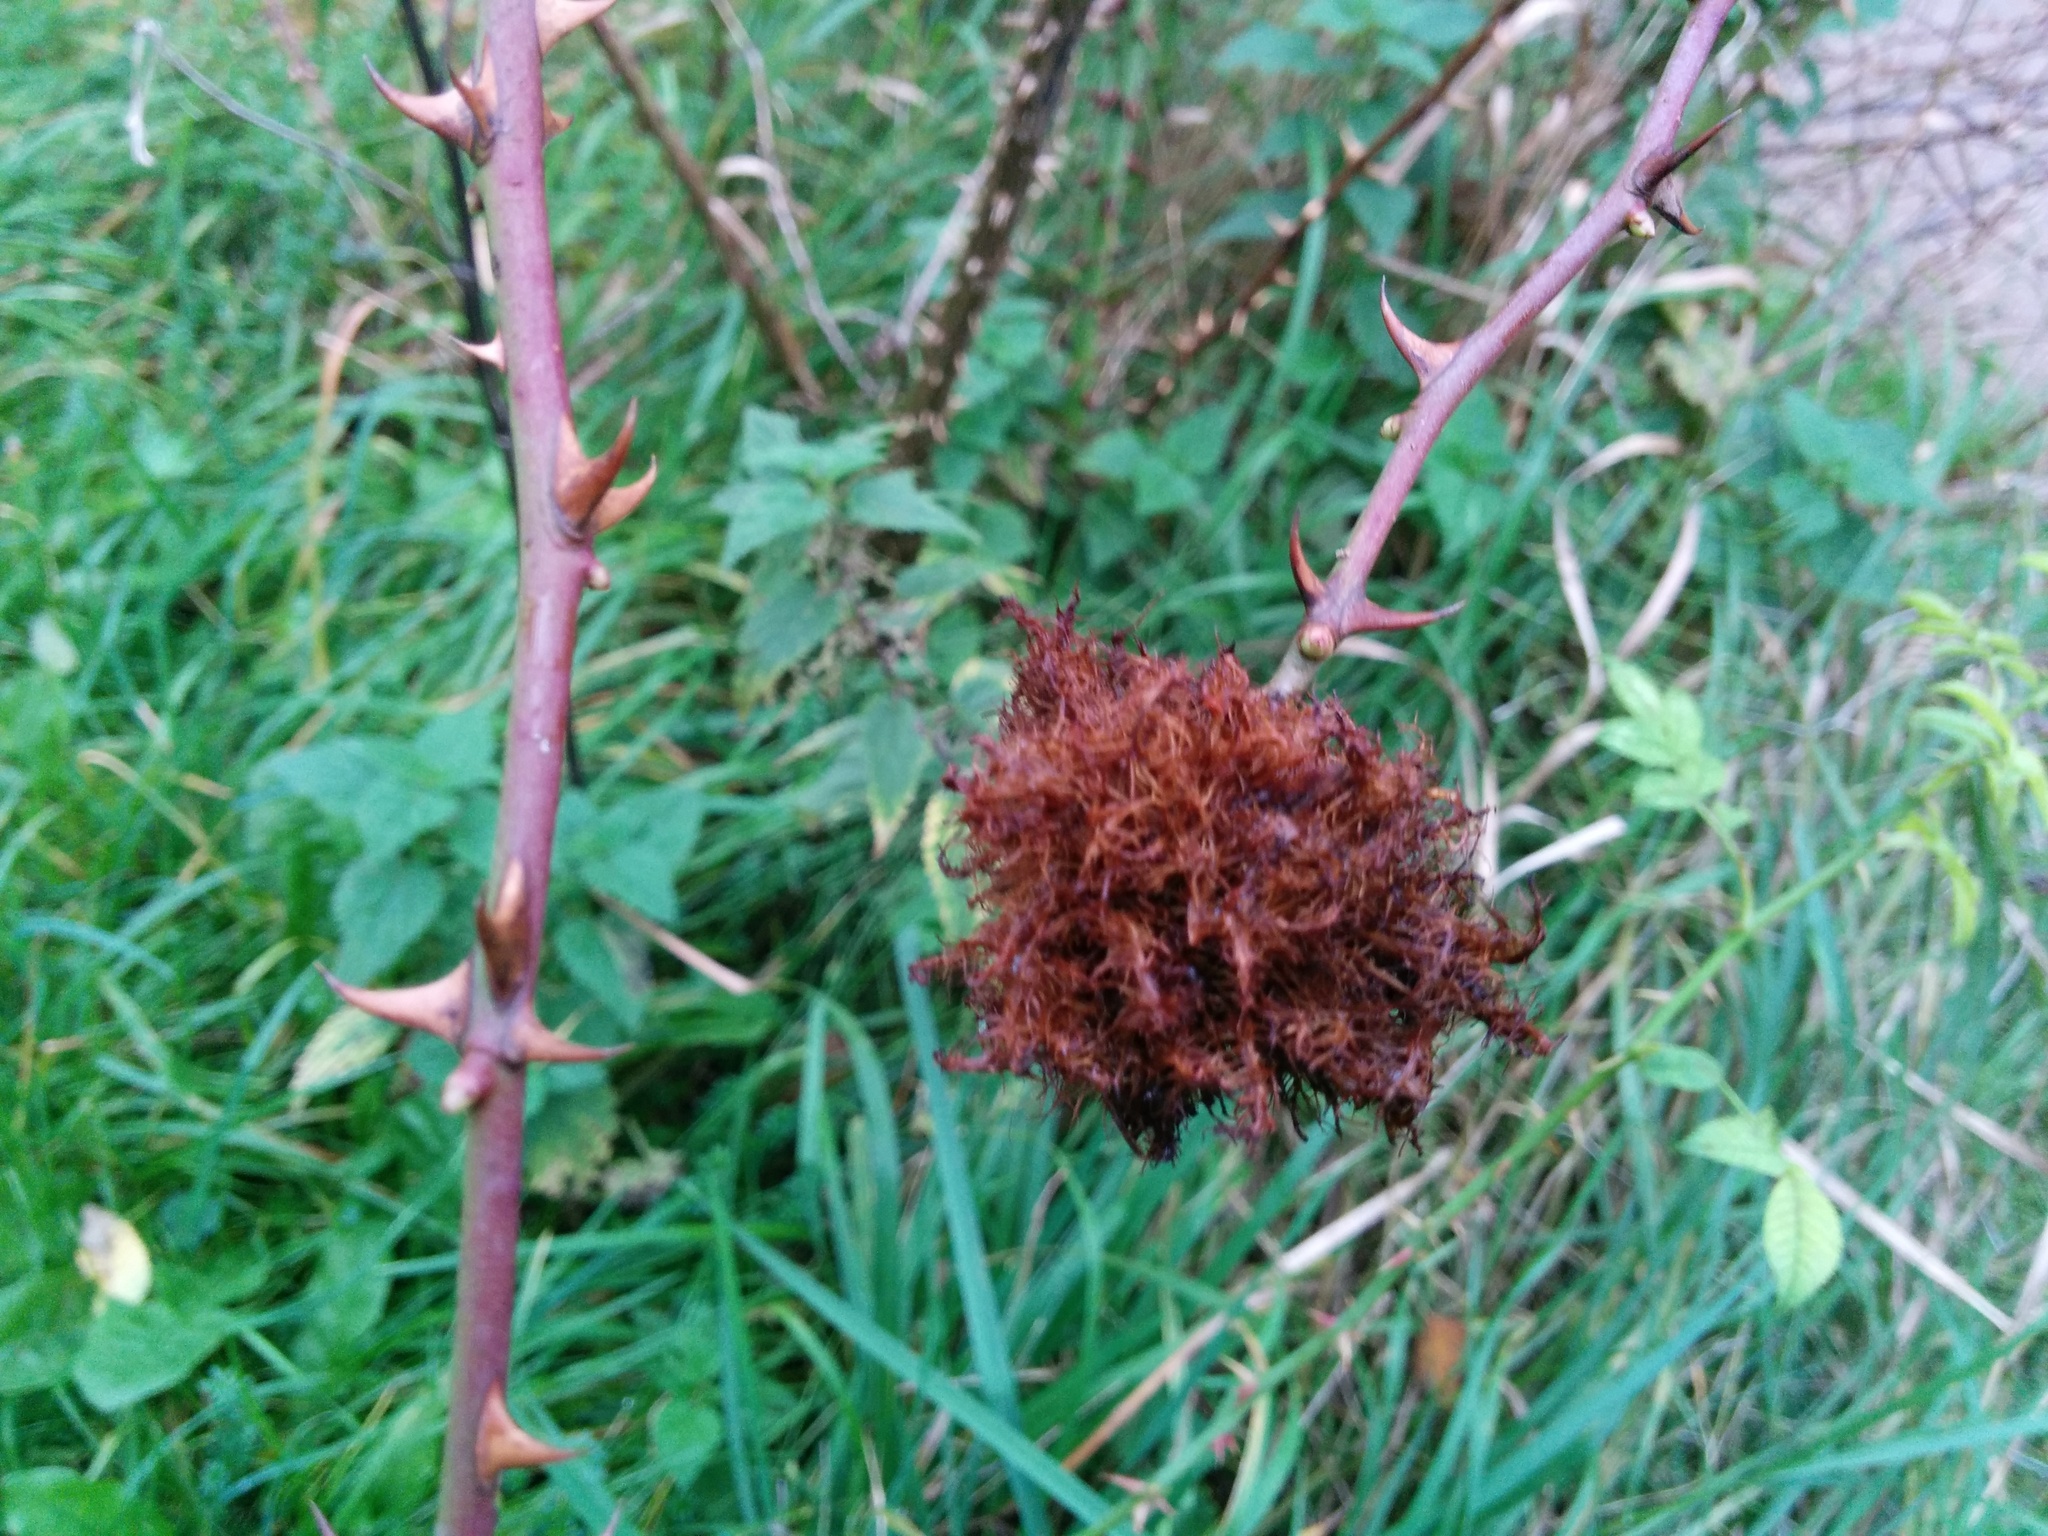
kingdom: Animalia
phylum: Arthropoda
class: Insecta
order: Hymenoptera
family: Cynipidae
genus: Diplolepis
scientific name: Diplolepis rosae
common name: Bedeguar gall
